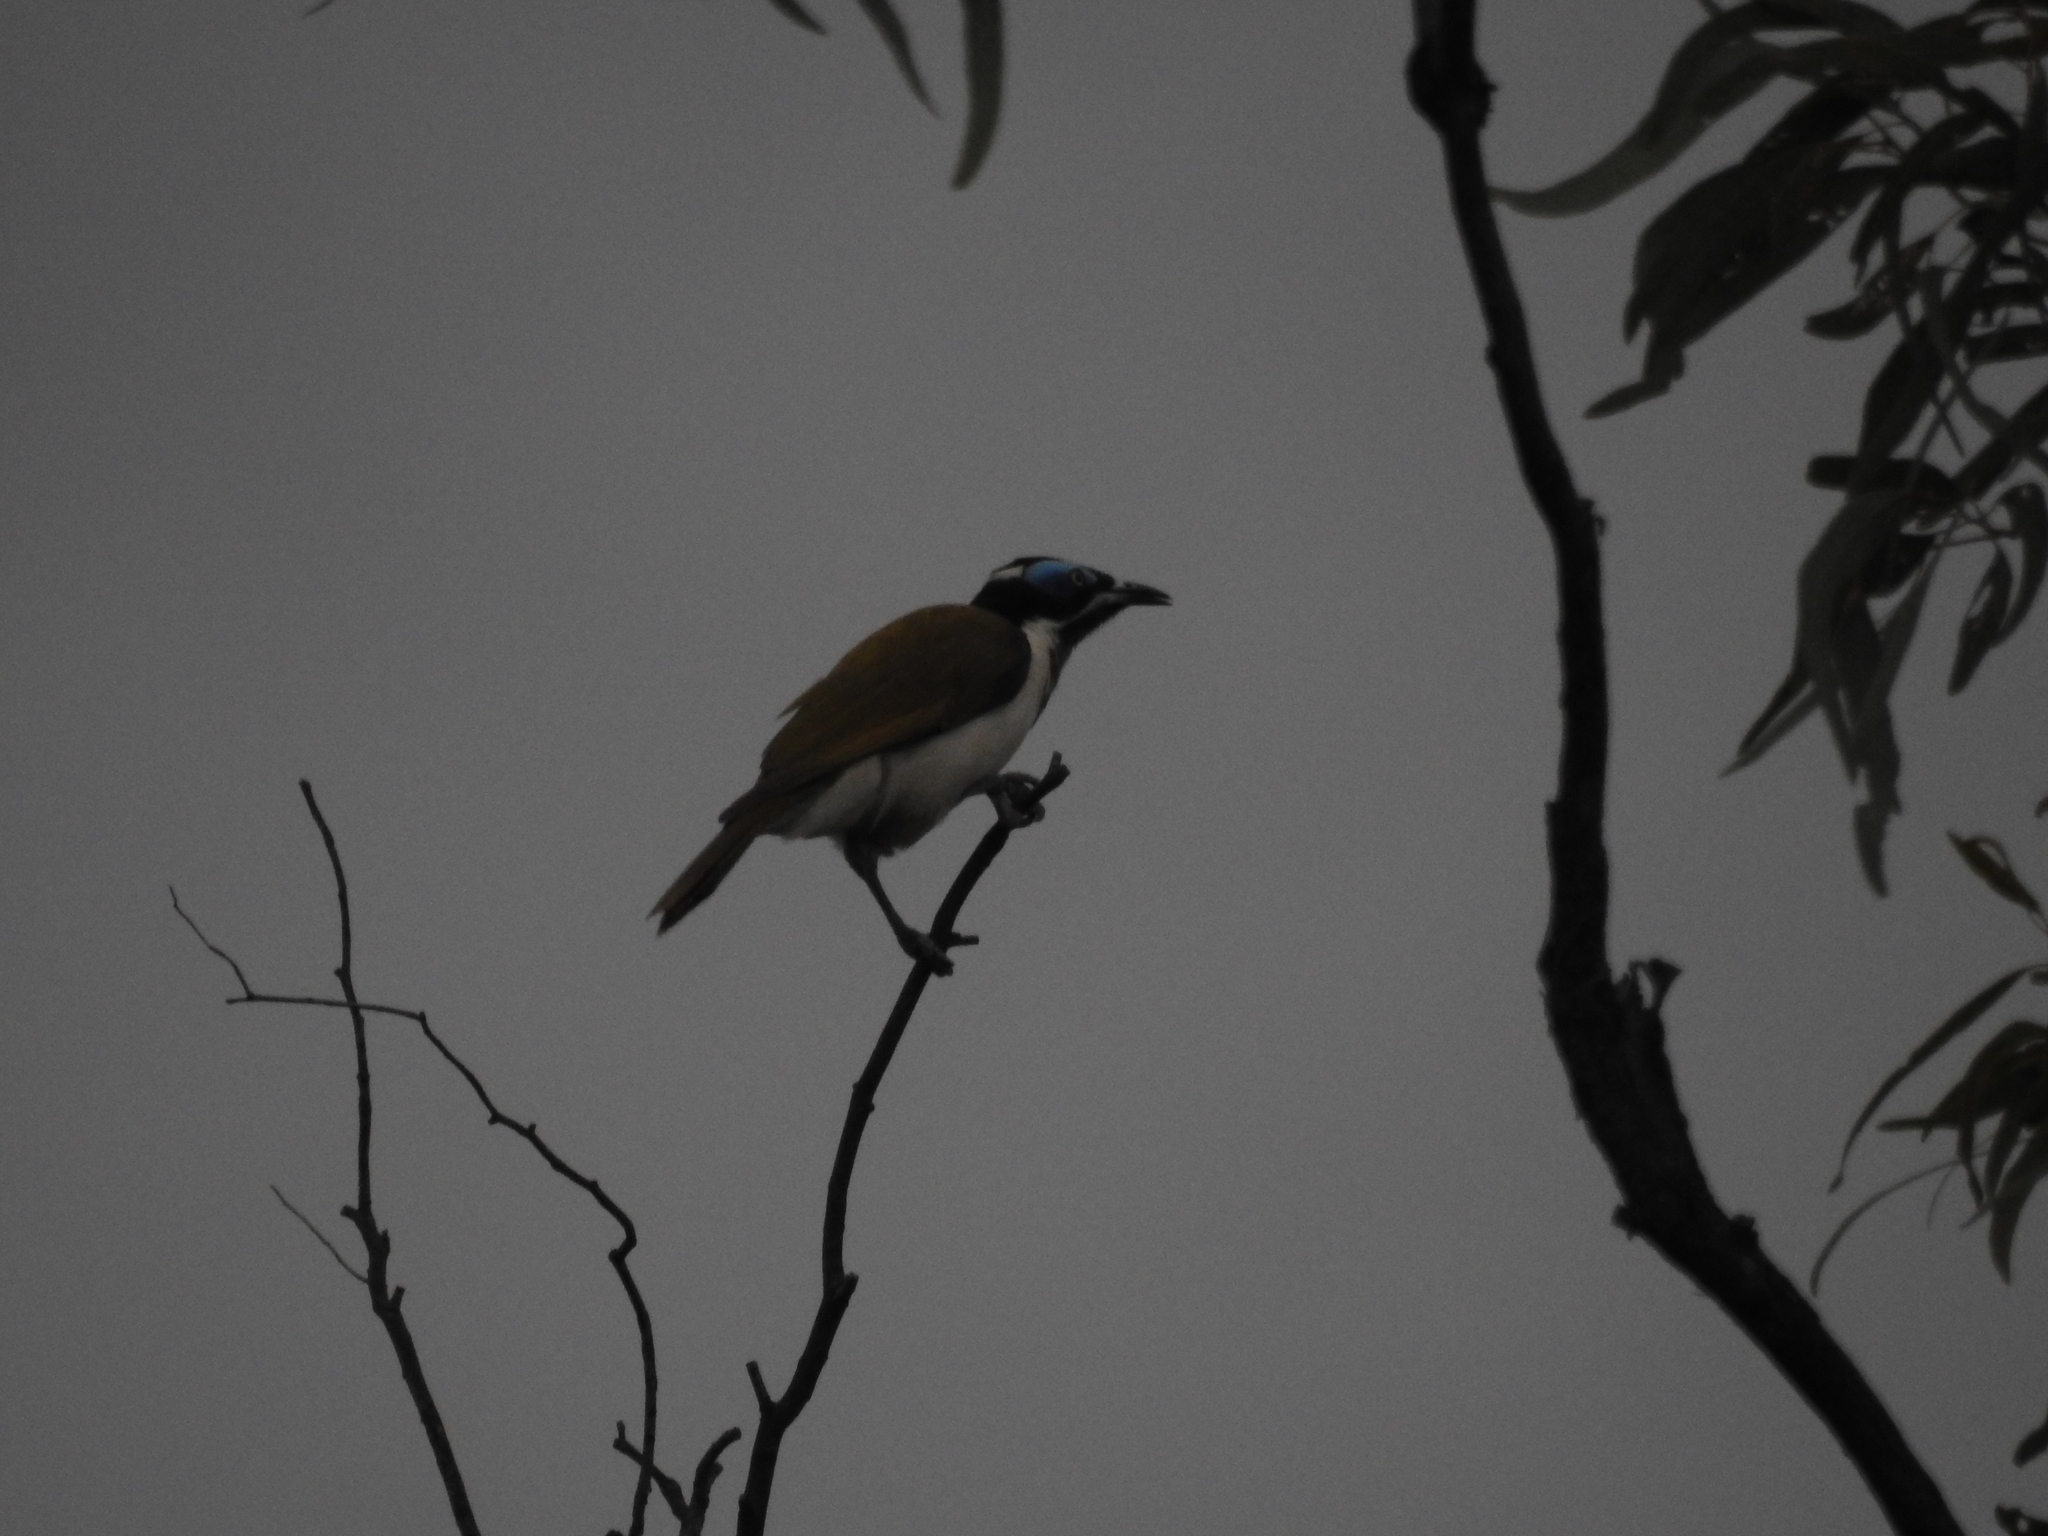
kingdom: Animalia
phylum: Chordata
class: Aves
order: Passeriformes
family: Meliphagidae
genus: Entomyzon
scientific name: Entomyzon cyanotis
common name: Blue-faced honeyeater
